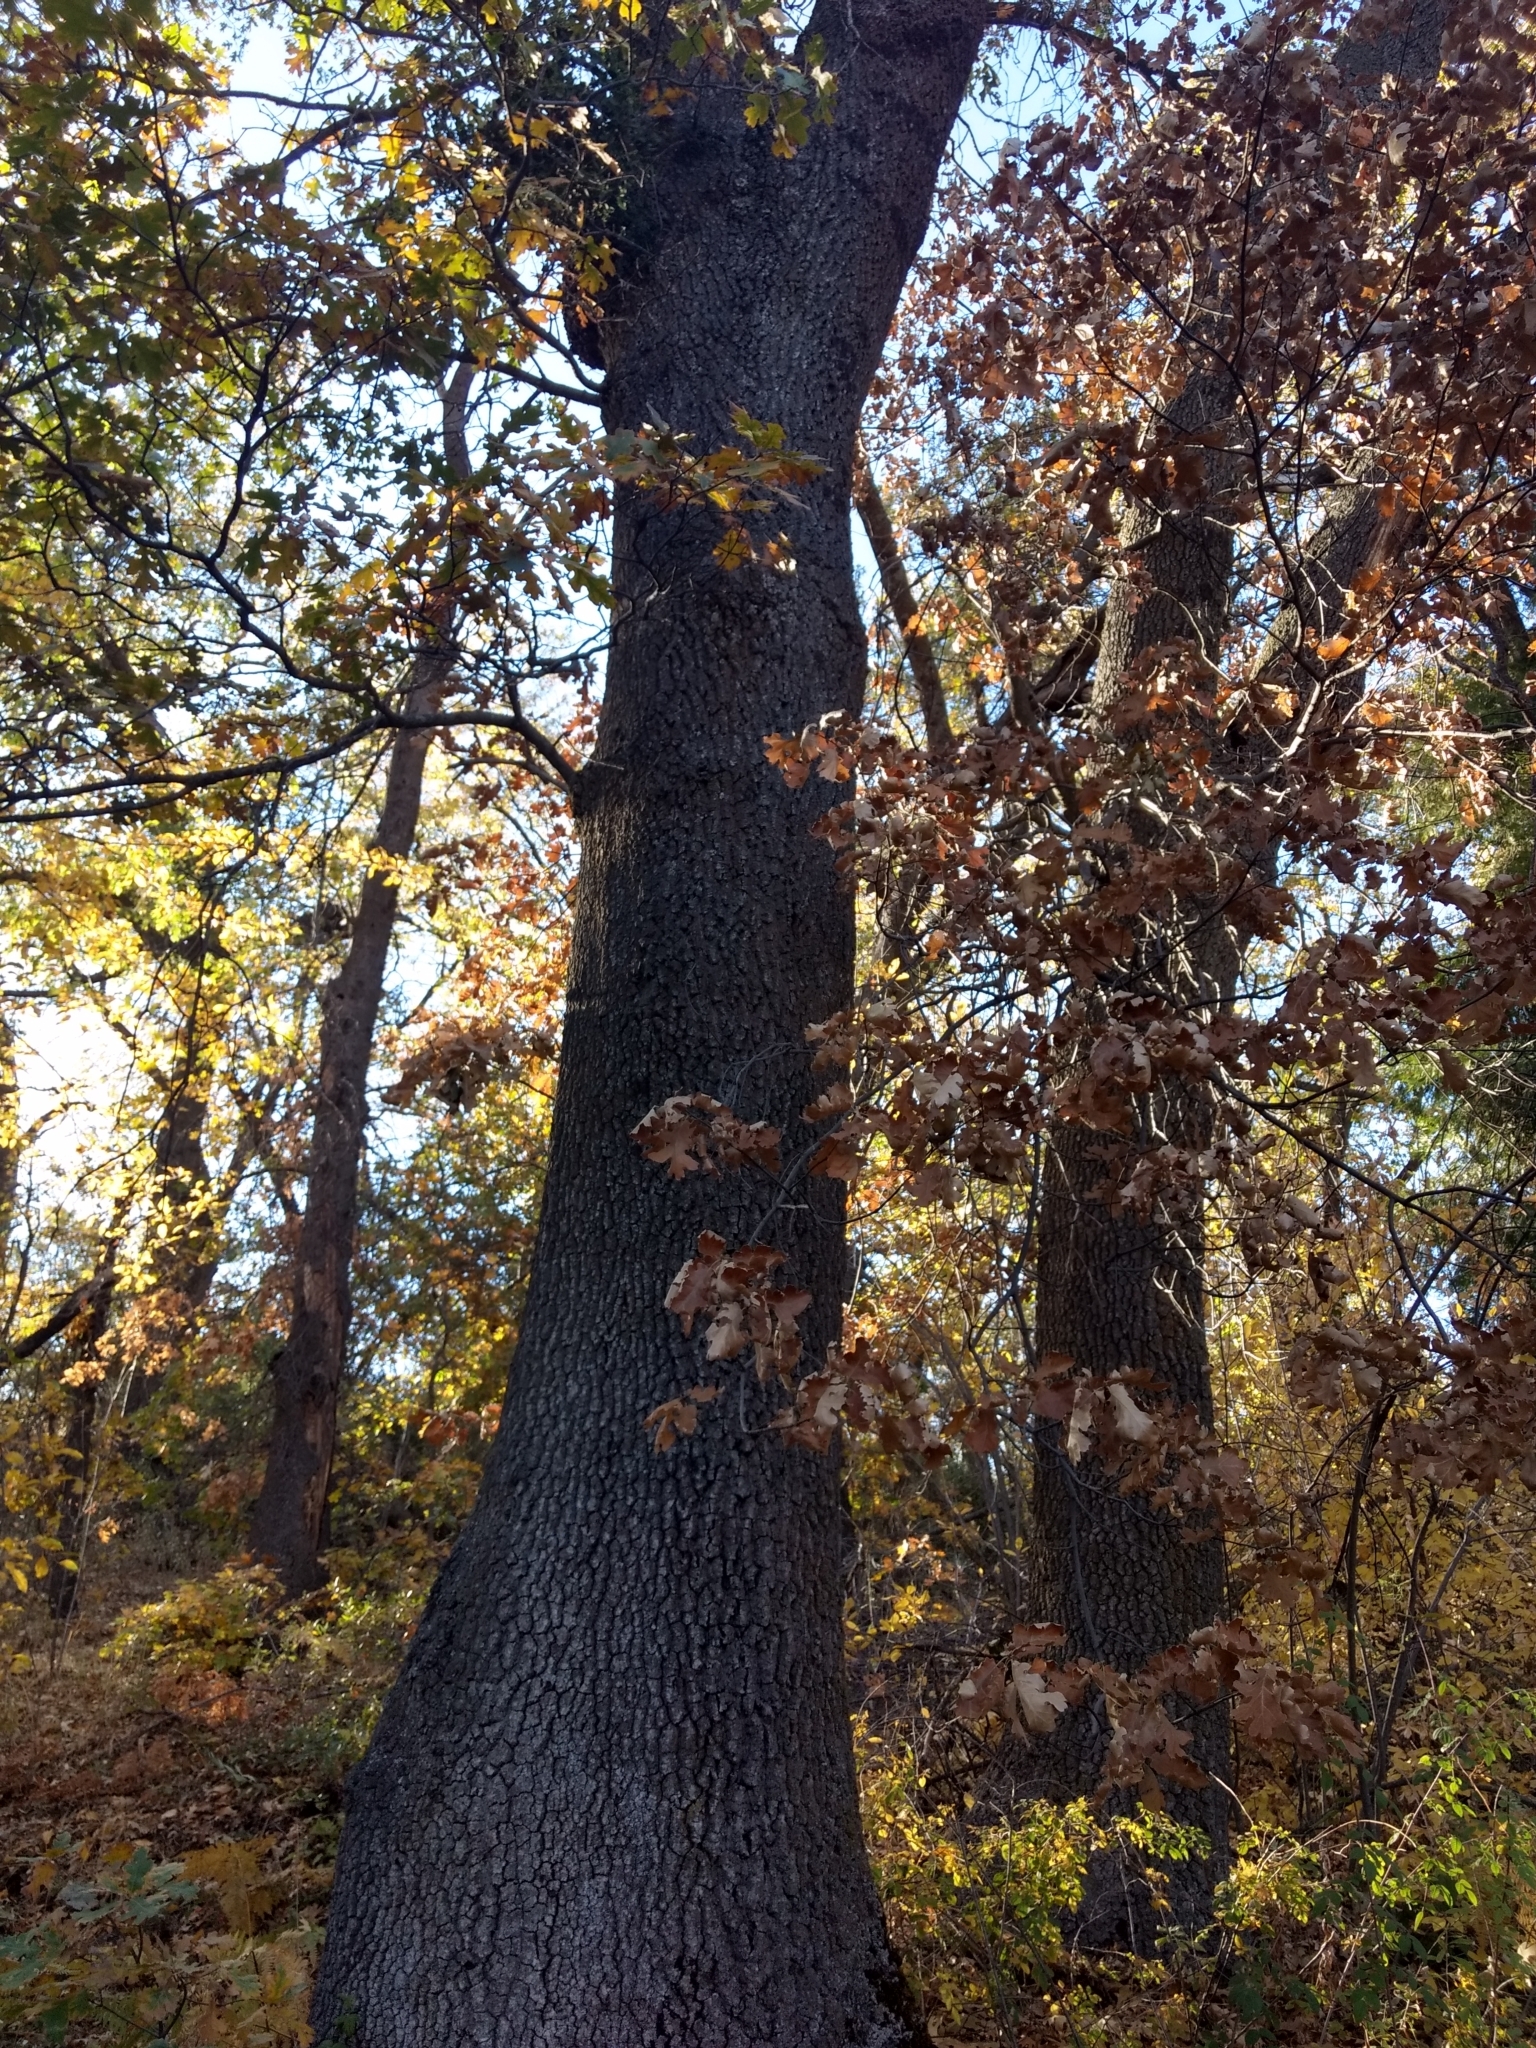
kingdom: Plantae
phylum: Tracheophyta
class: Magnoliopsida
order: Fagales
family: Fagaceae
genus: Quercus
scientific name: Quercus kelloggii
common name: California black oak
